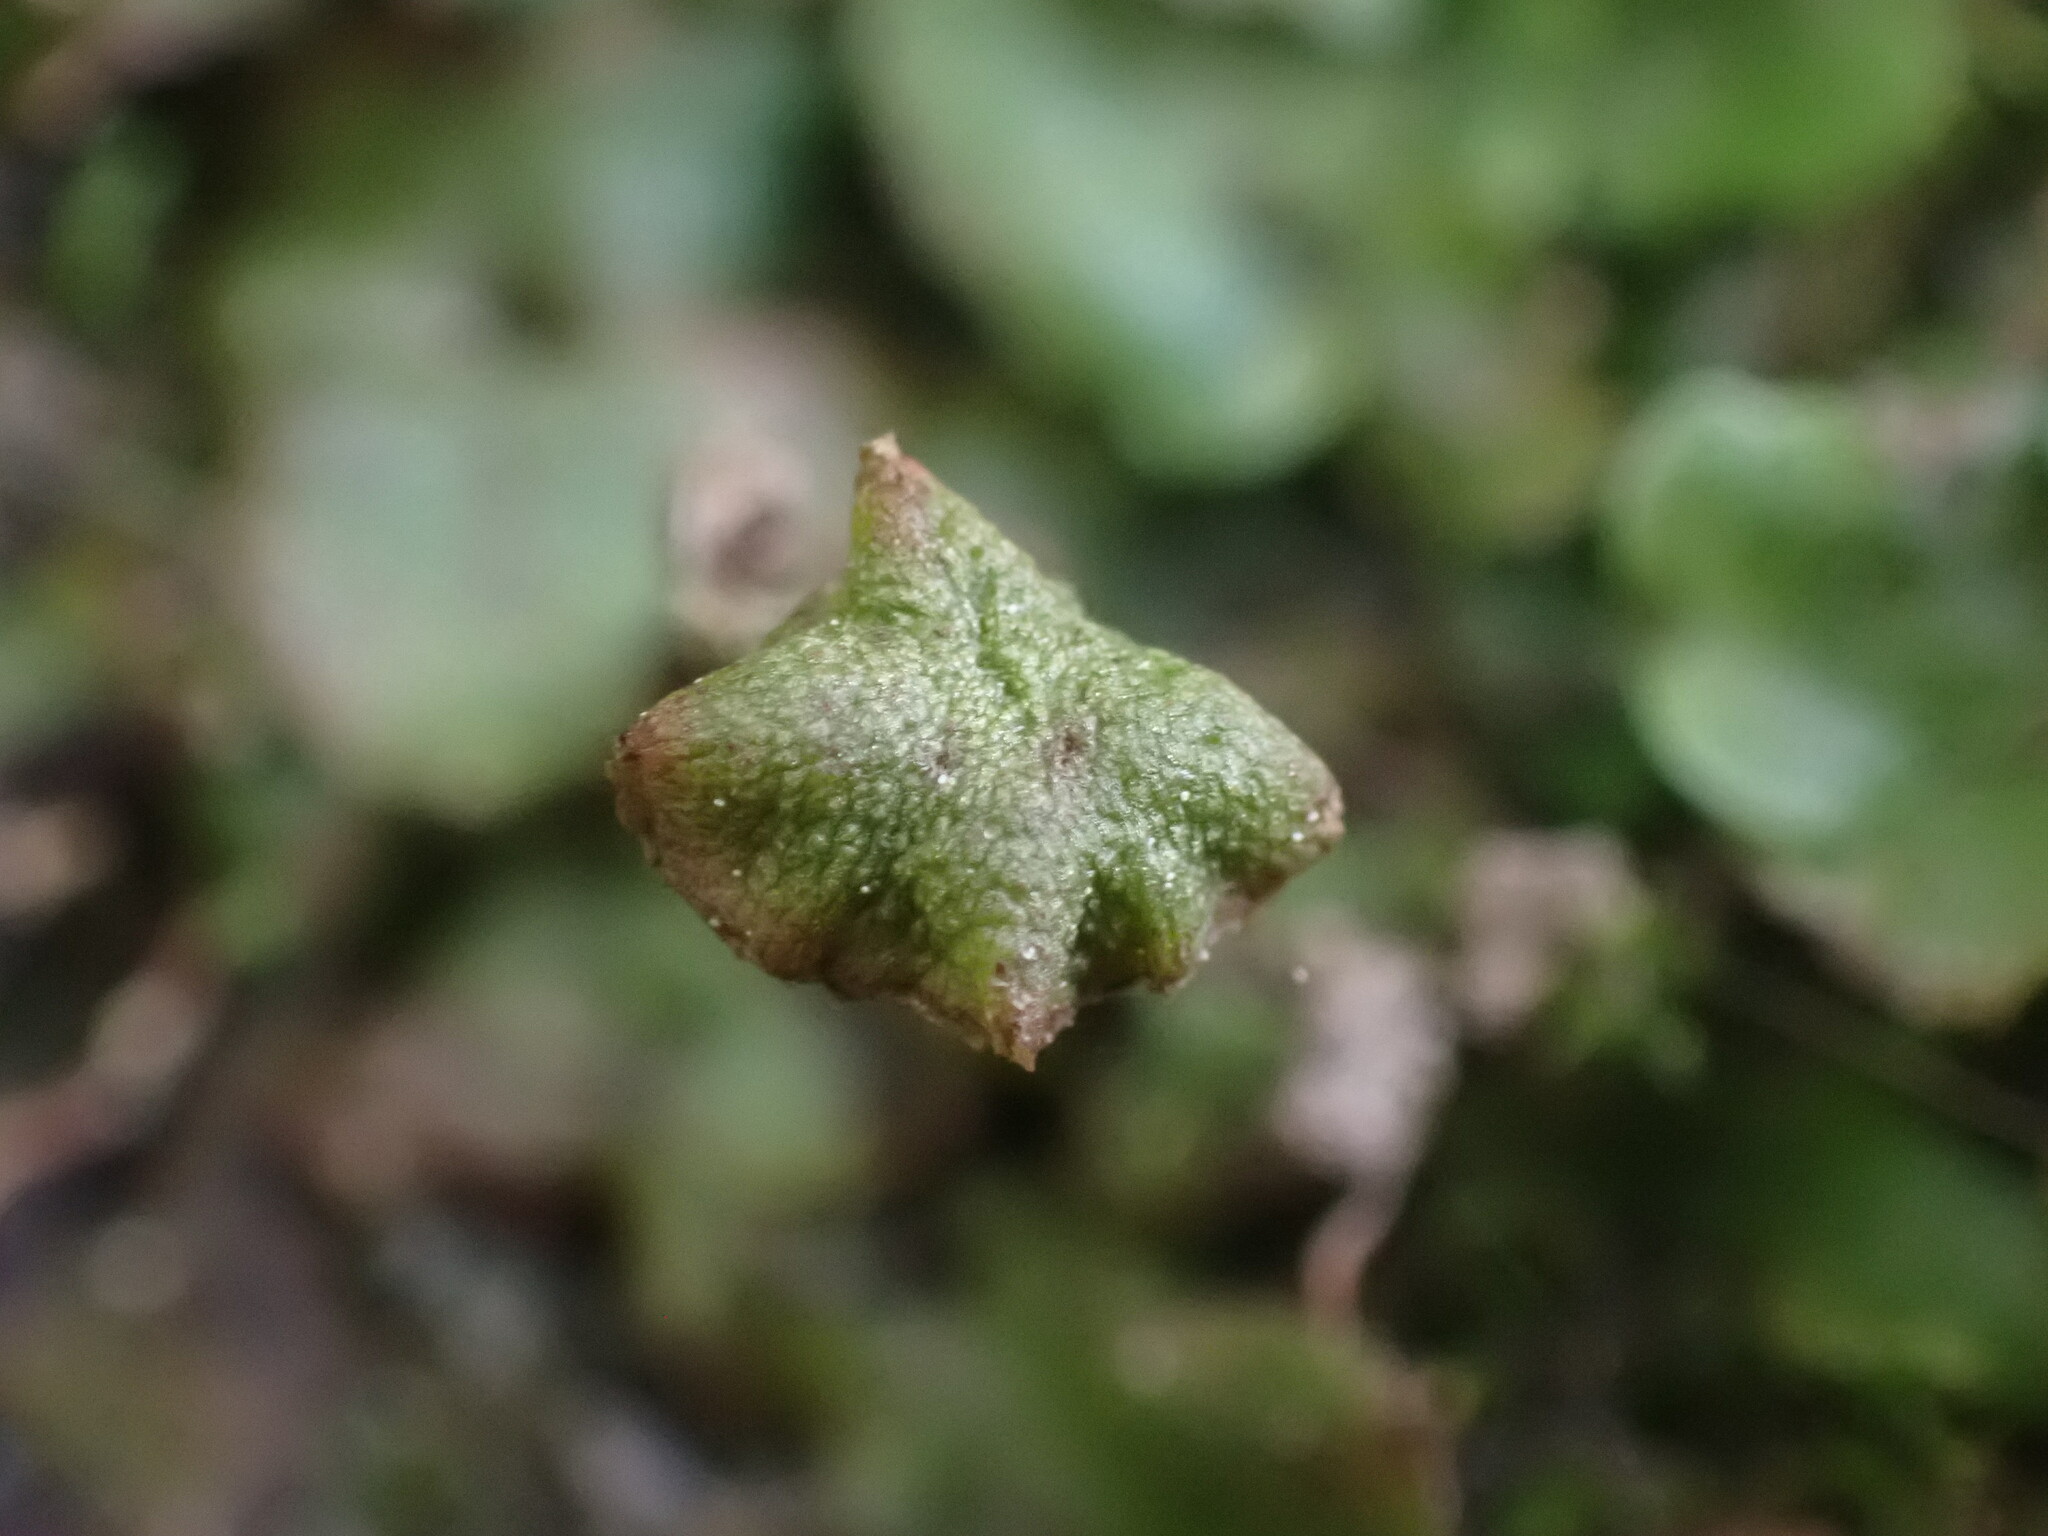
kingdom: Plantae
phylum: Marchantiophyta
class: Marchantiopsida
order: Marchantiales
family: Marchantiaceae
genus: Marchantia
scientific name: Marchantia quadrata
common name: Narrow mushroom-headed liverwort
